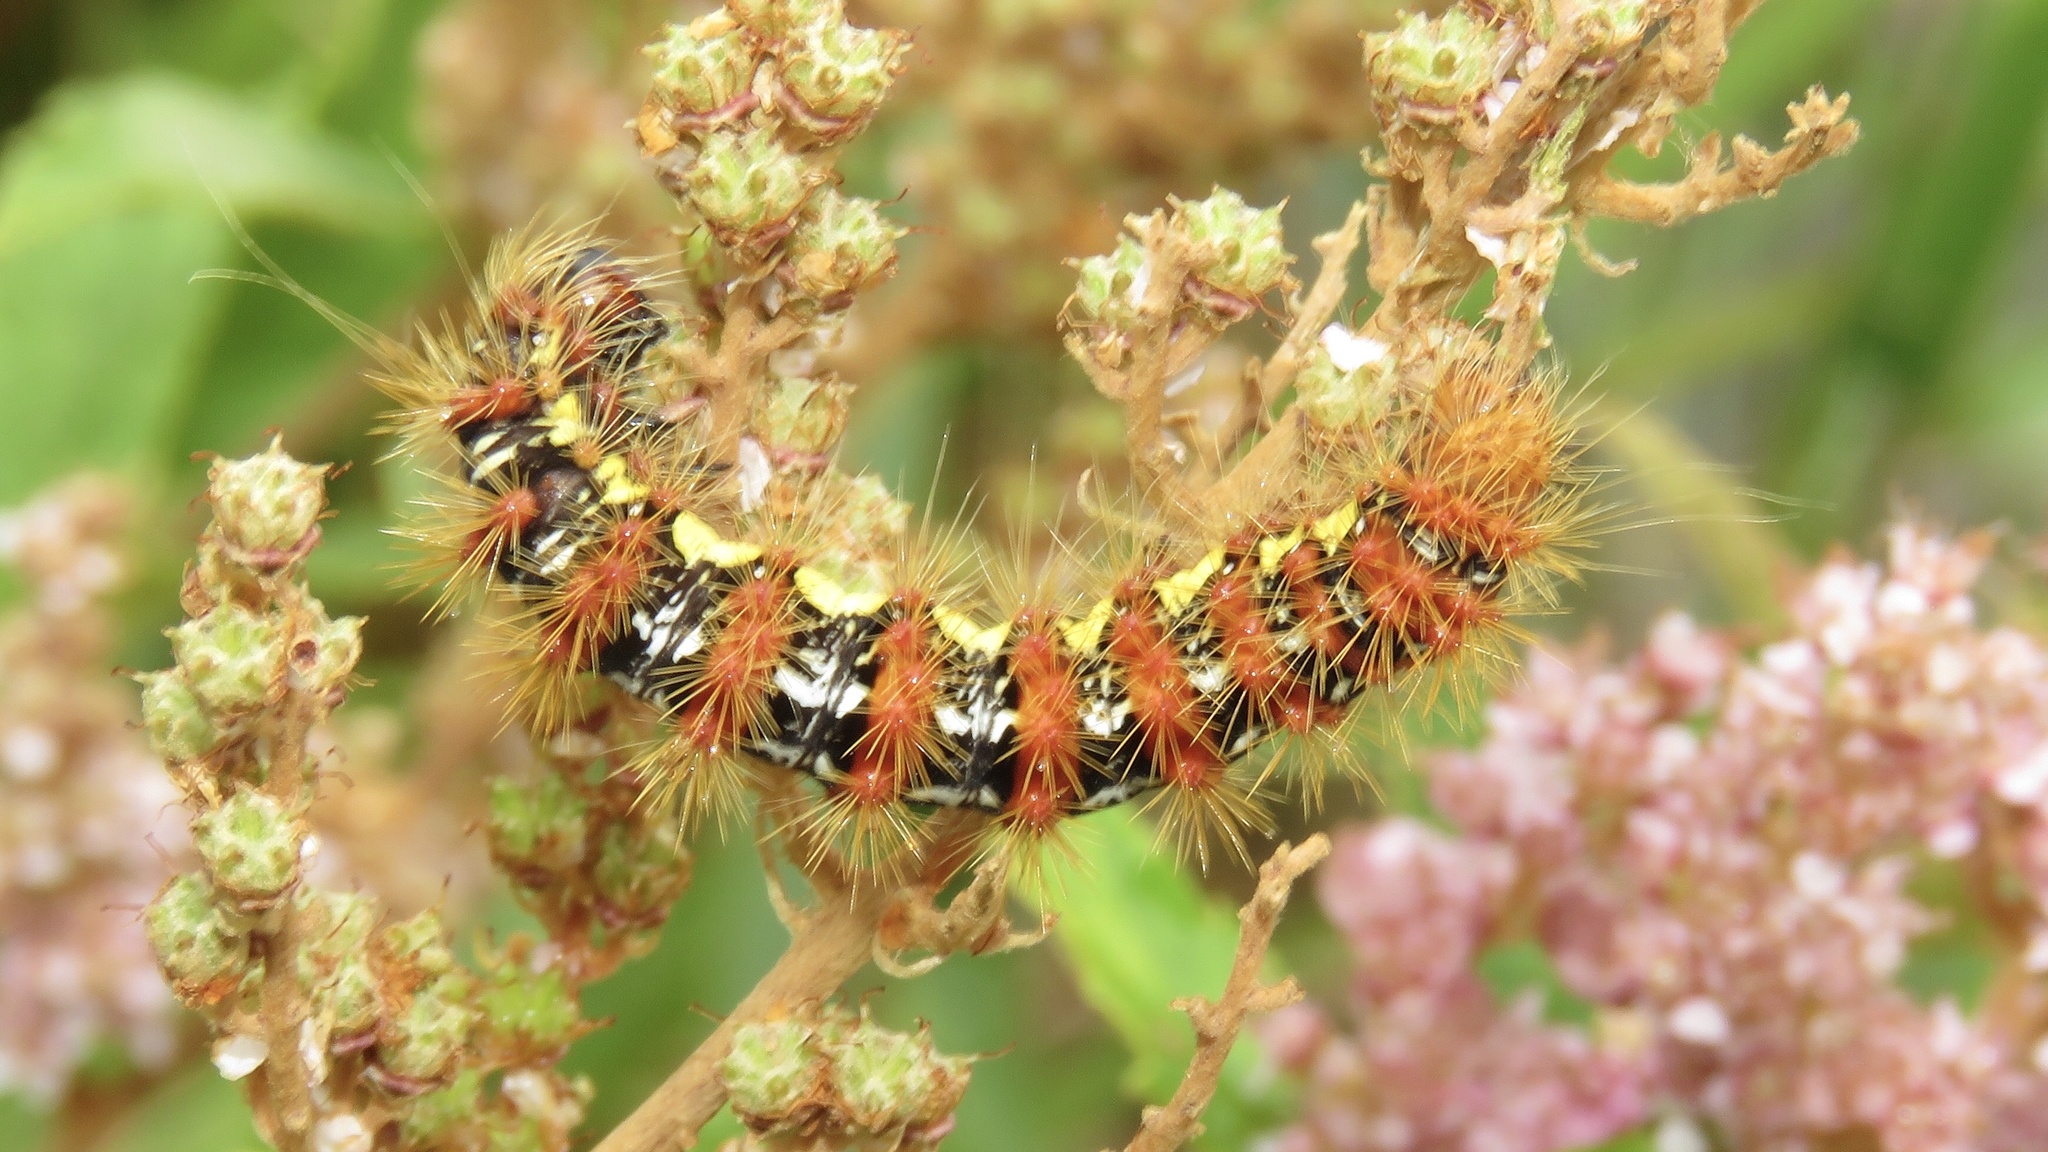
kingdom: Animalia
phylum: Arthropoda
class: Insecta
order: Lepidoptera
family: Noctuidae
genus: Acronicta
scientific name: Acronicta oblinita
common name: Smeared dagger
